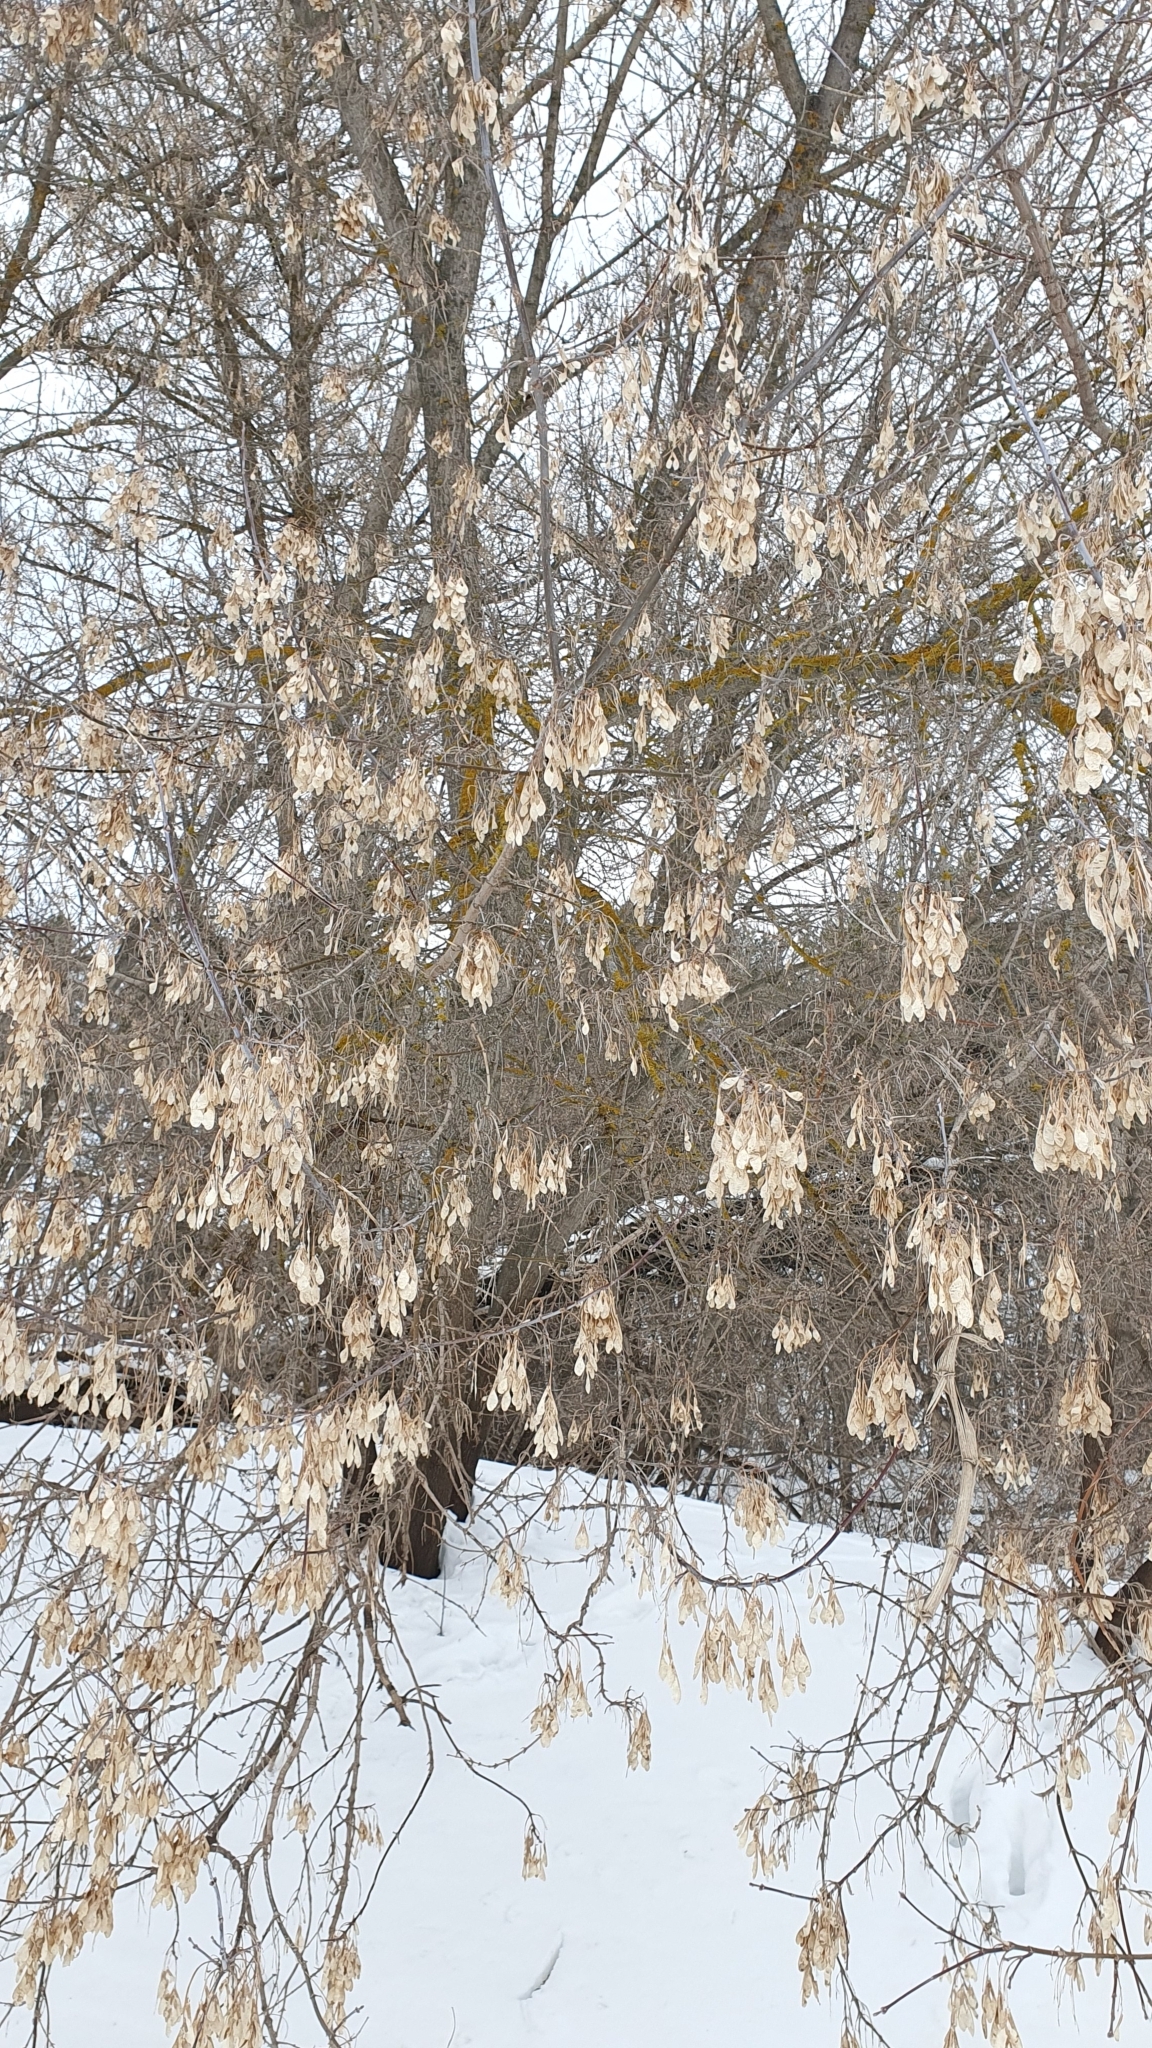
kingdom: Plantae
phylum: Tracheophyta
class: Magnoliopsida
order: Sapindales
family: Sapindaceae
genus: Acer
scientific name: Acer negundo
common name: Ashleaf maple
